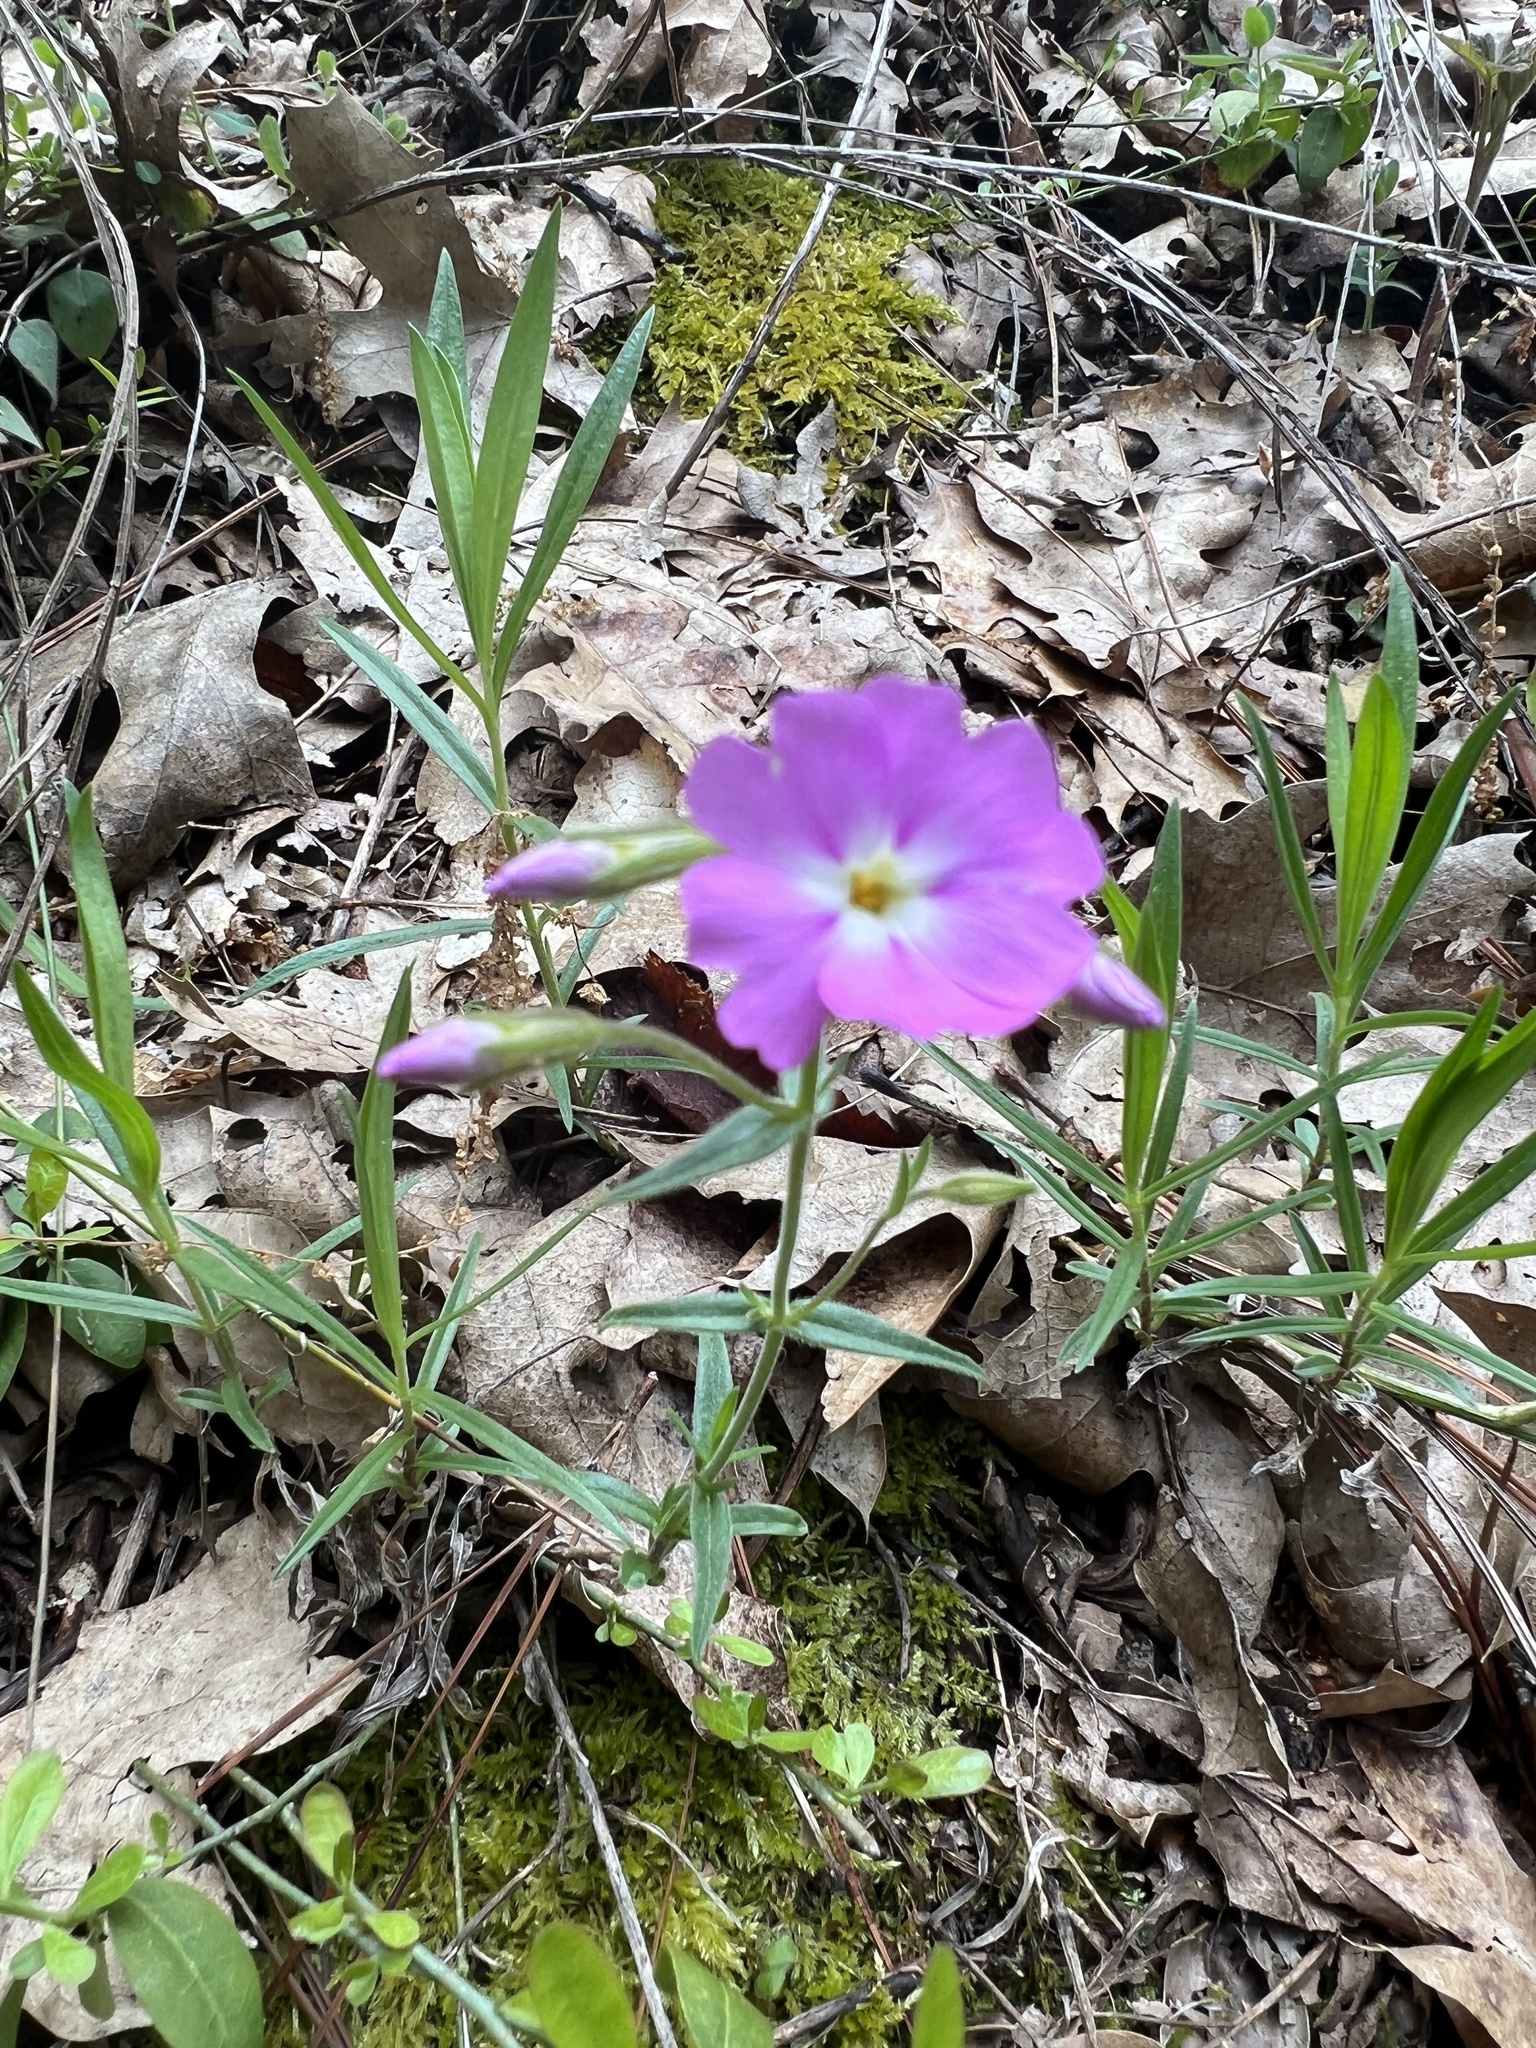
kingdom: Plantae
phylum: Tracheophyta
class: Magnoliopsida
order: Ericales
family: Polemoniaceae
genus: Phlox
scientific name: Phlox speciosa
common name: Bush phlox
